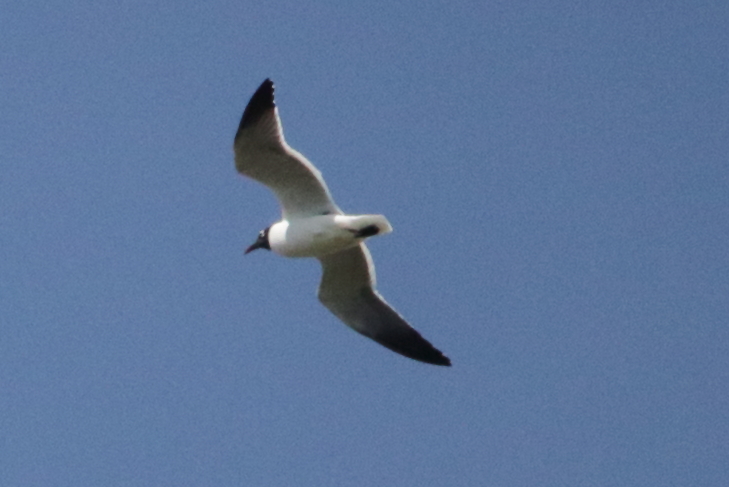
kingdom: Animalia
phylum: Chordata
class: Aves
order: Charadriiformes
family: Laridae
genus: Leucophaeus
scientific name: Leucophaeus atricilla
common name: Laughing gull
